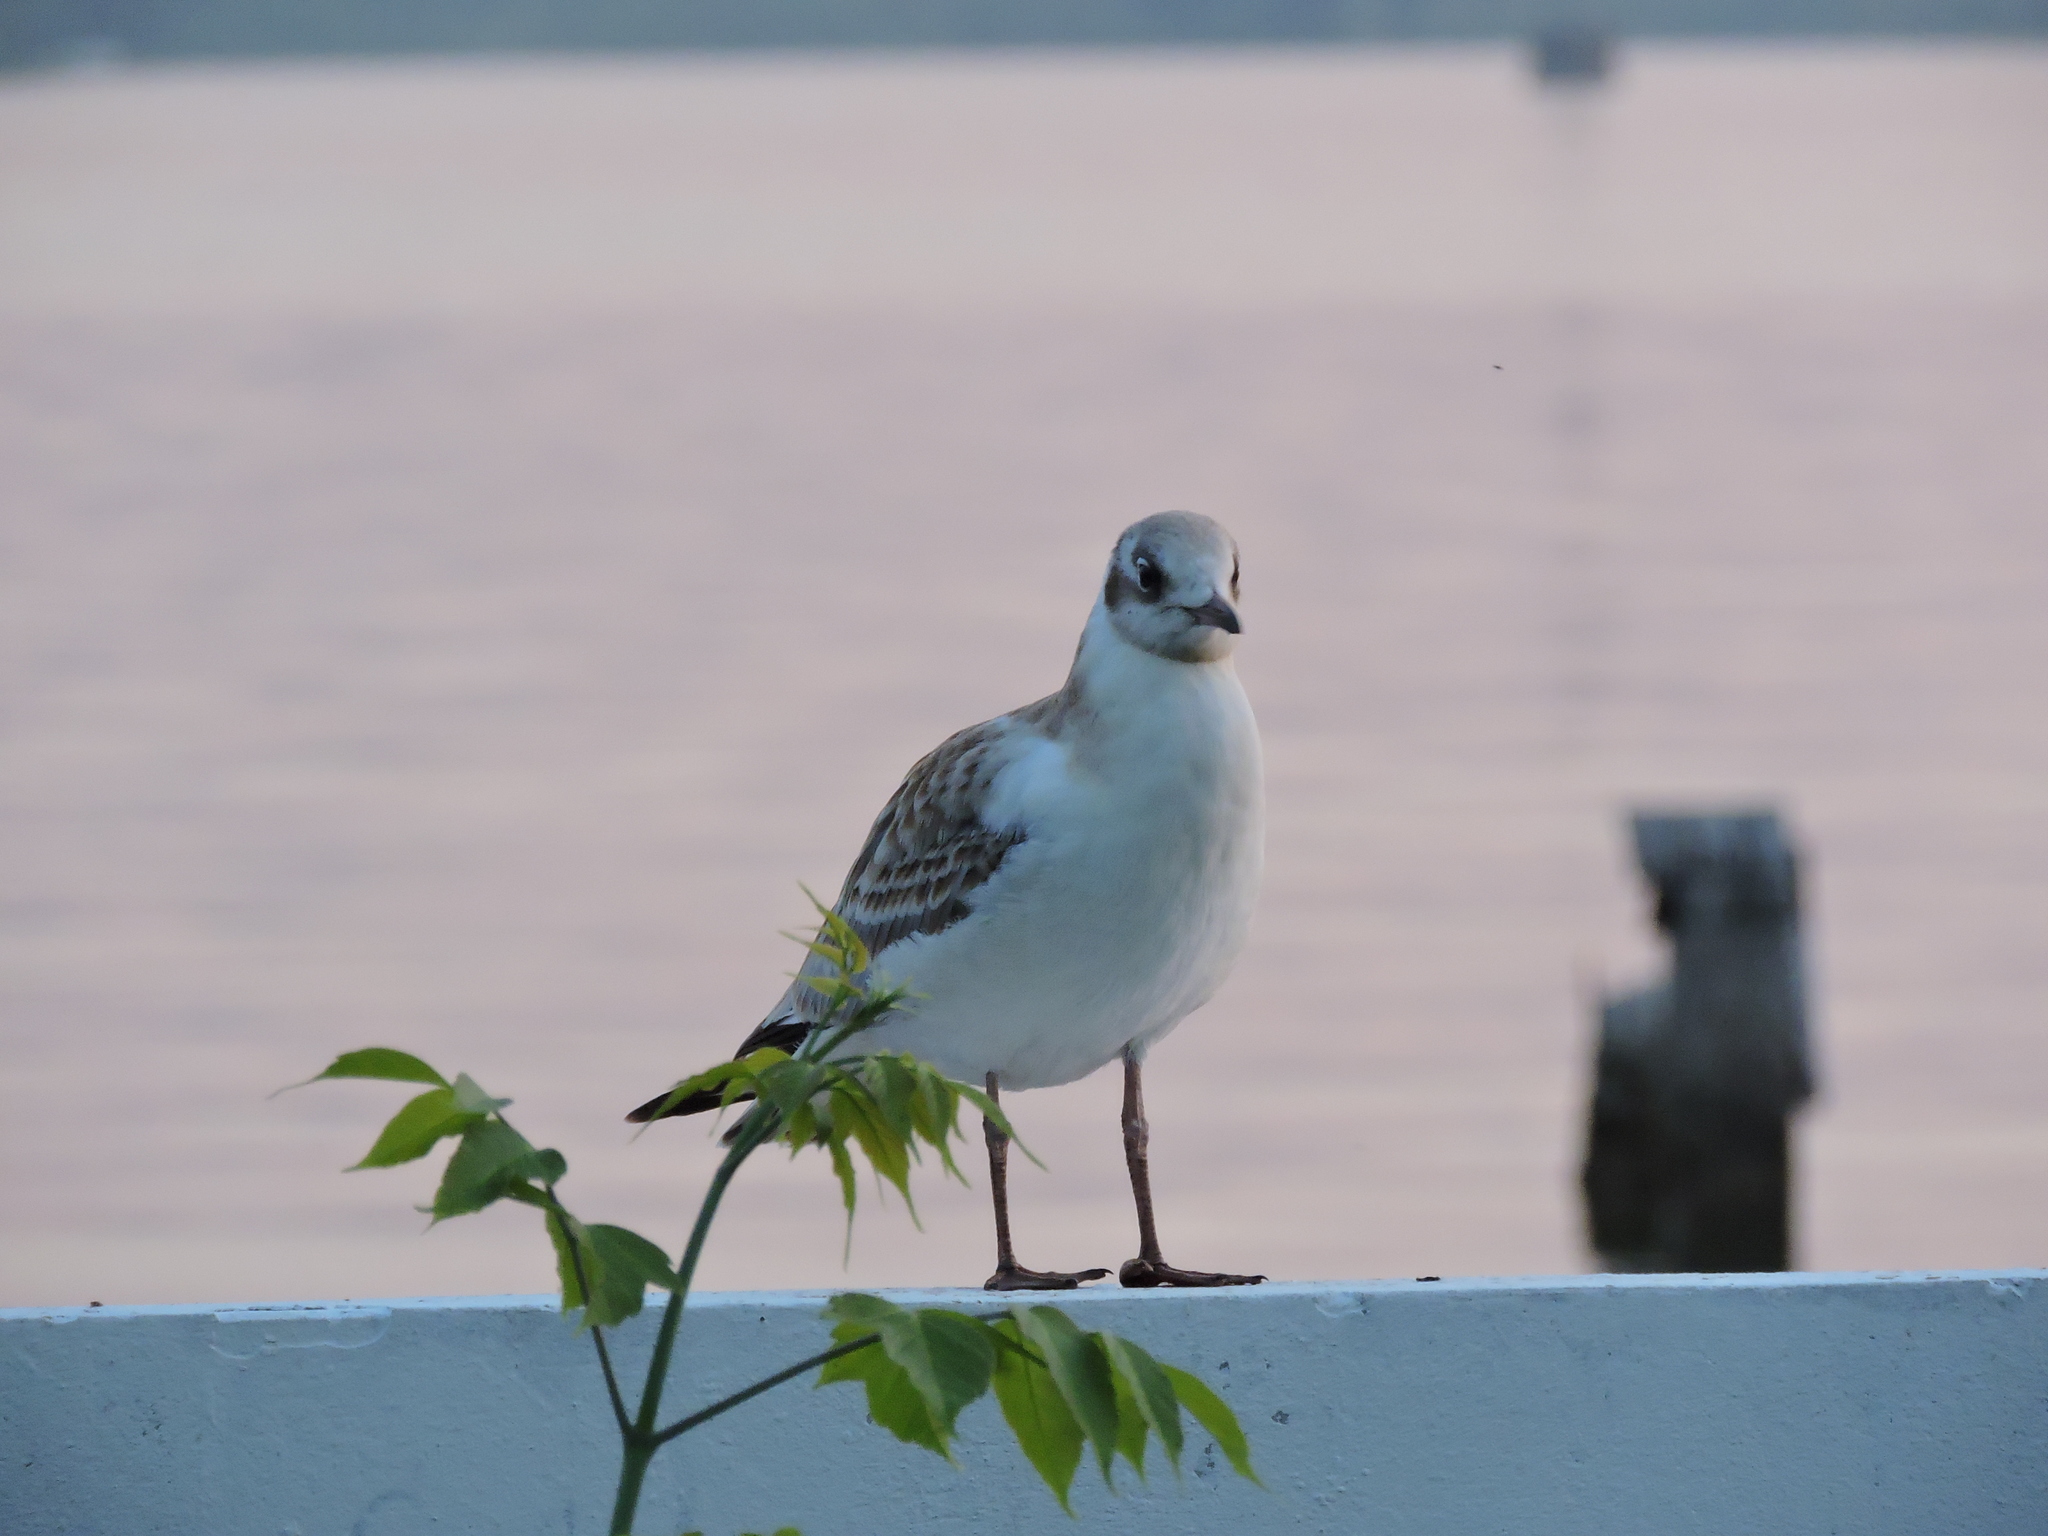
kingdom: Animalia
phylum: Chordata
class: Aves
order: Charadriiformes
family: Laridae
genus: Chroicocephalus
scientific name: Chroicocephalus ridibundus
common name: Black-headed gull
